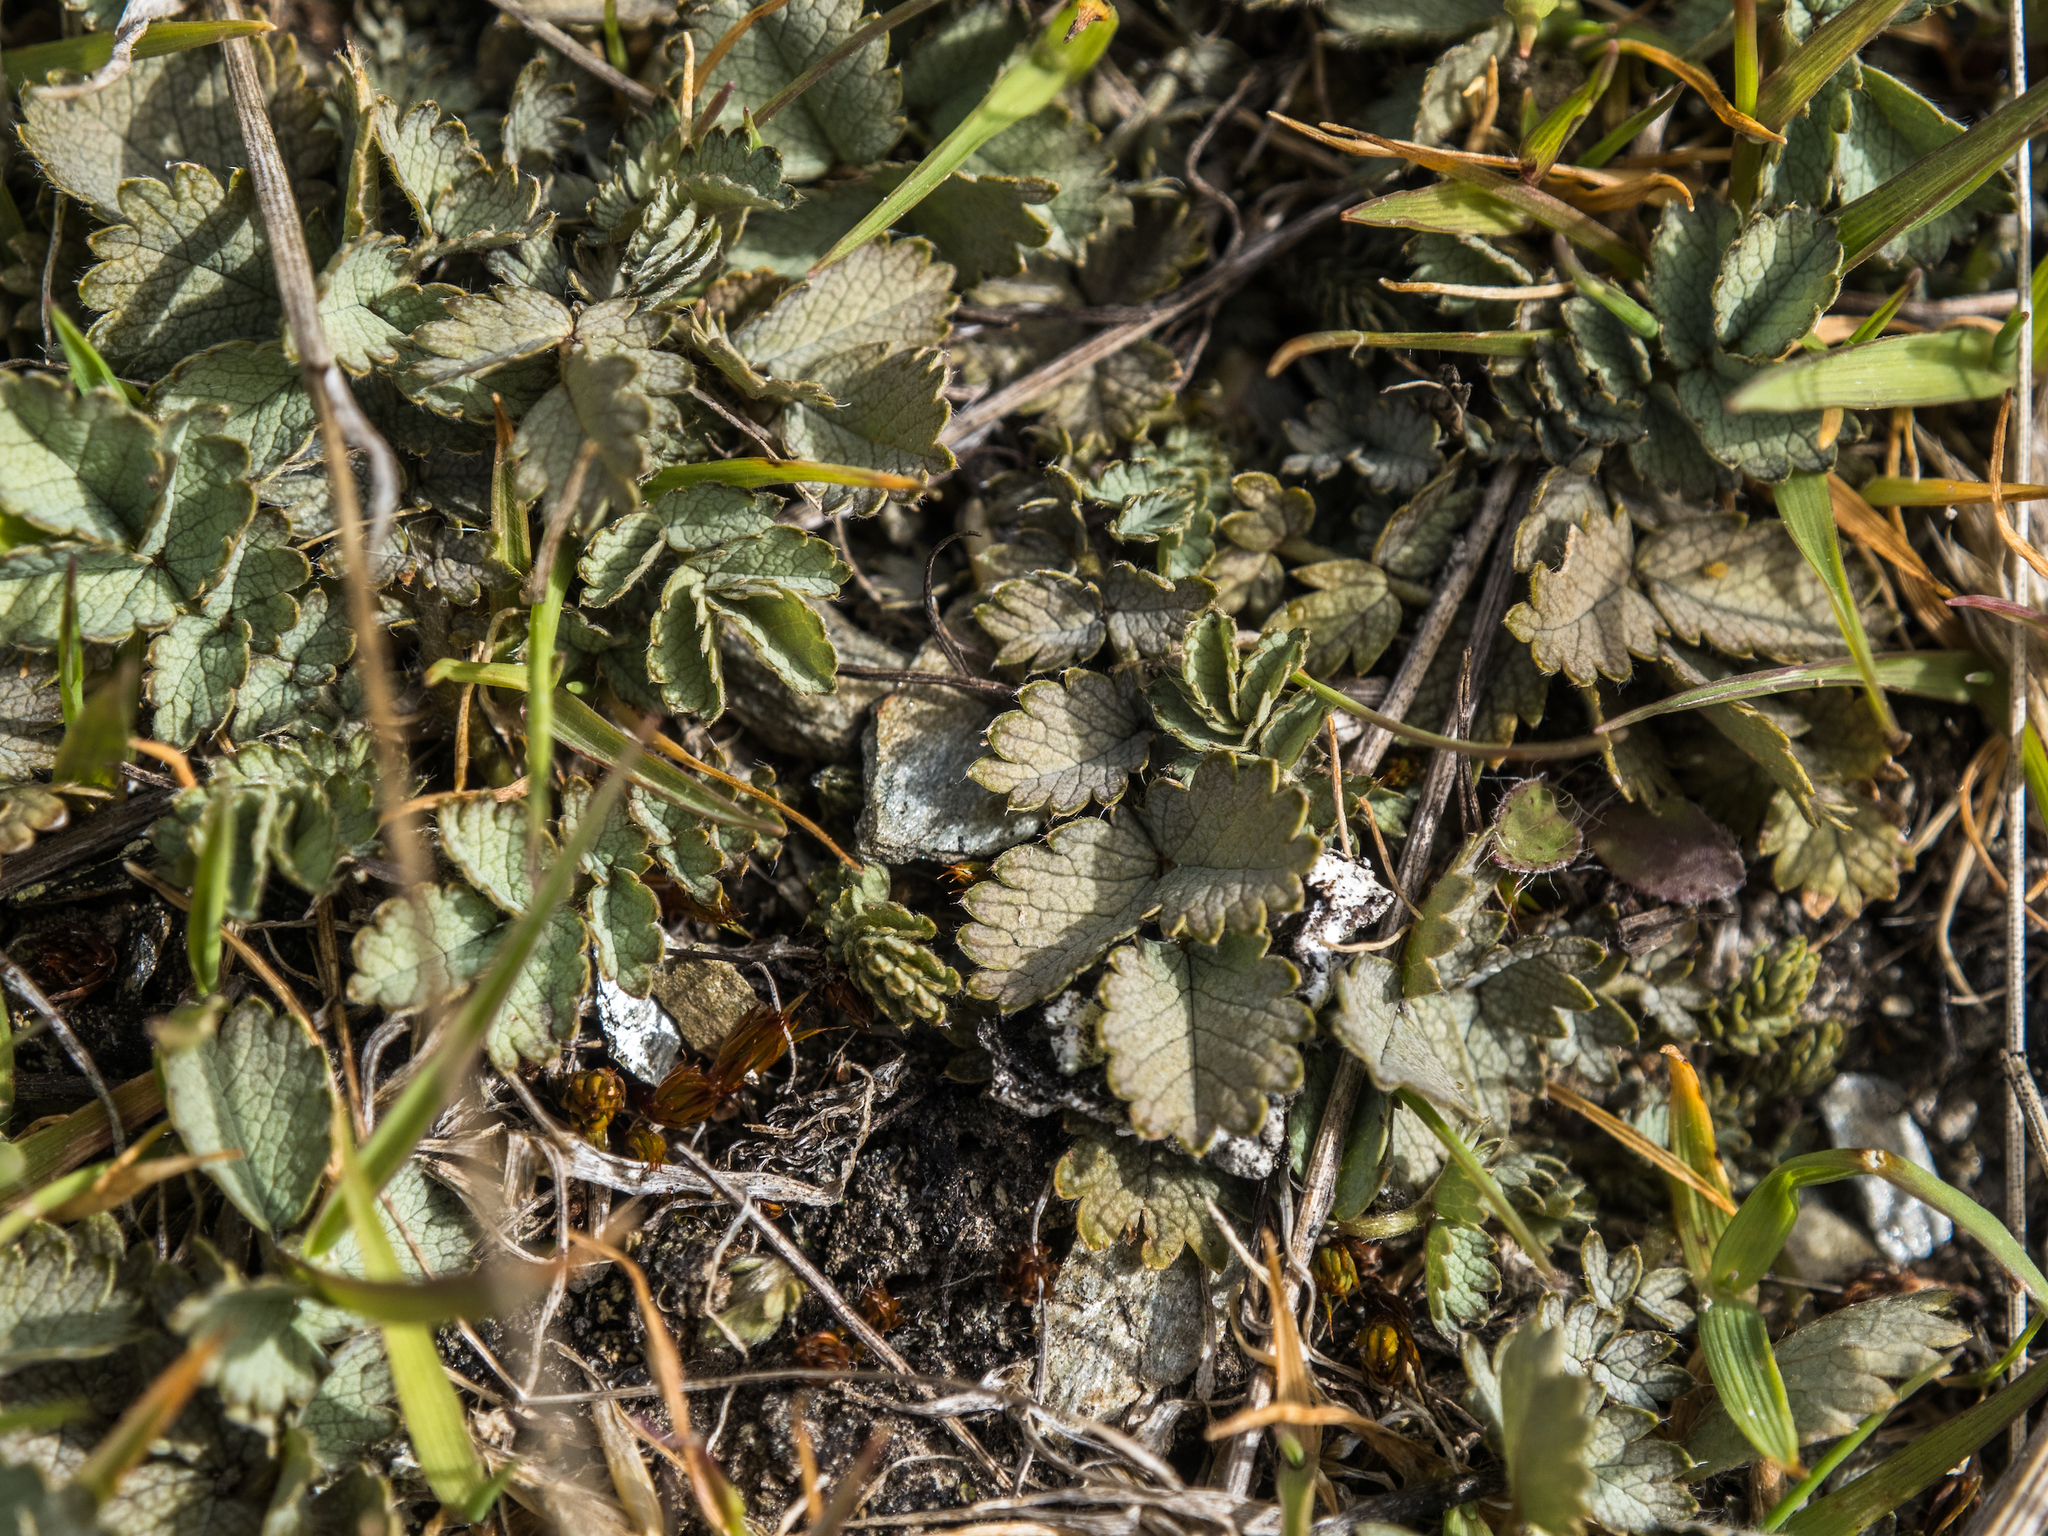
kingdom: Plantae
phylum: Tracheophyta
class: Magnoliopsida
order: Rosales
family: Rosaceae
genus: Acaena
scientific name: Acaena buchananii
